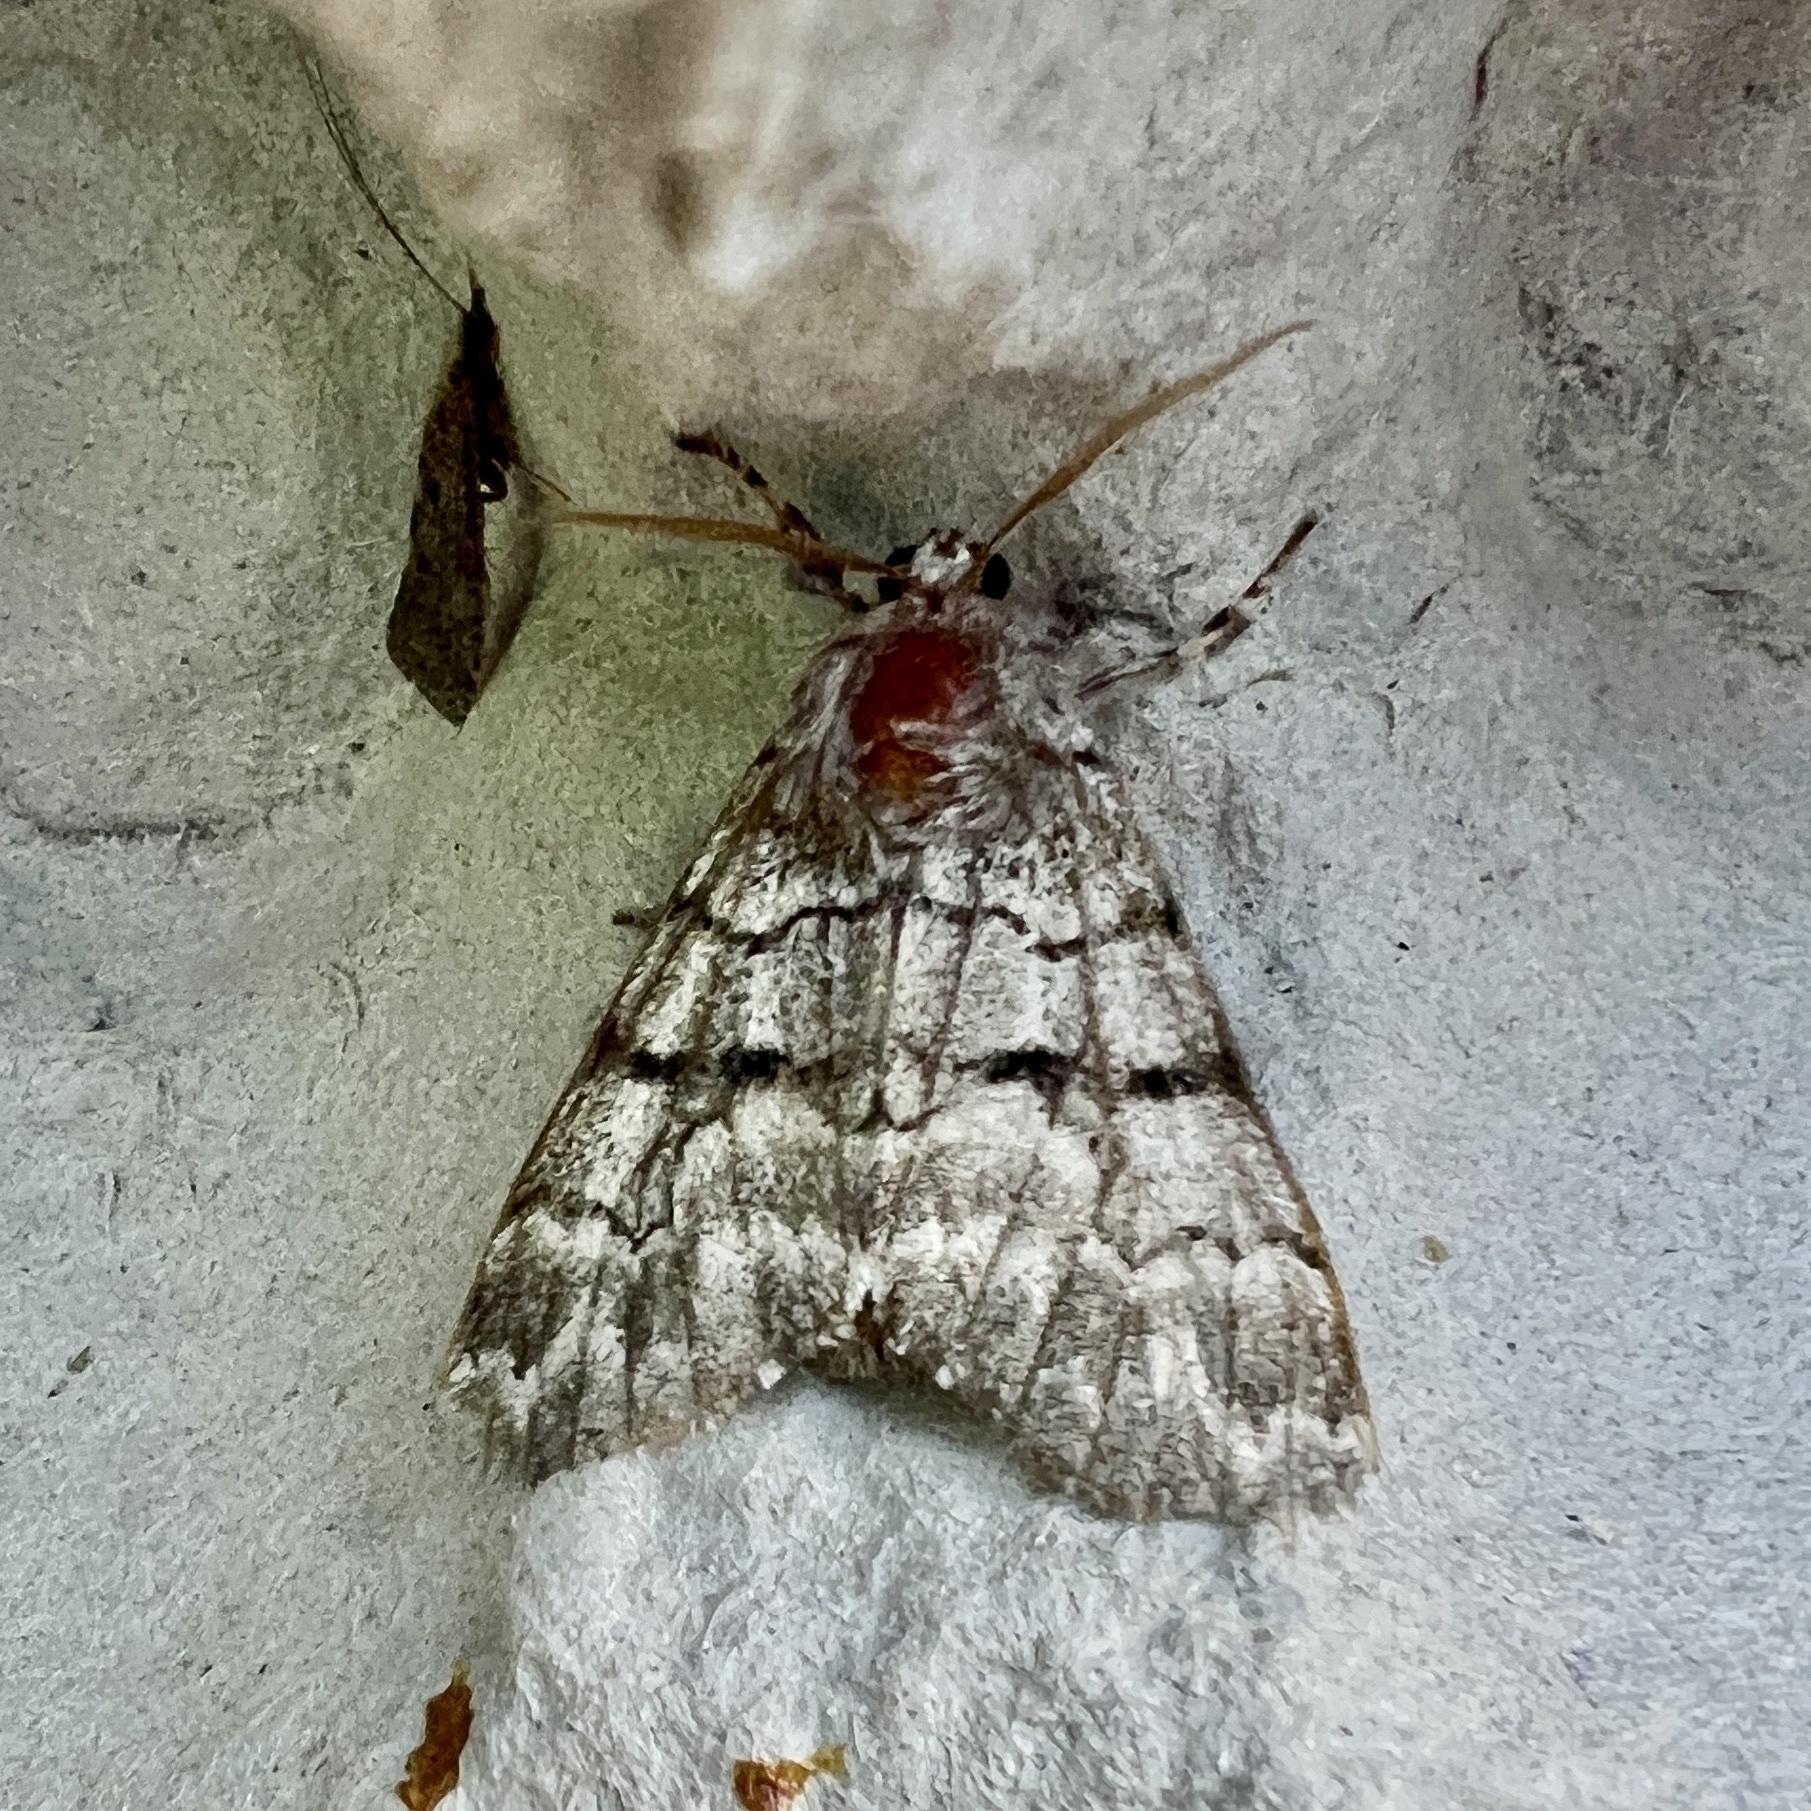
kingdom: Animalia
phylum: Arthropoda
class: Insecta
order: Lepidoptera
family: Noctuidae
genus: Panthea
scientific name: Panthea furcilla
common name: Eastern panthea moth
